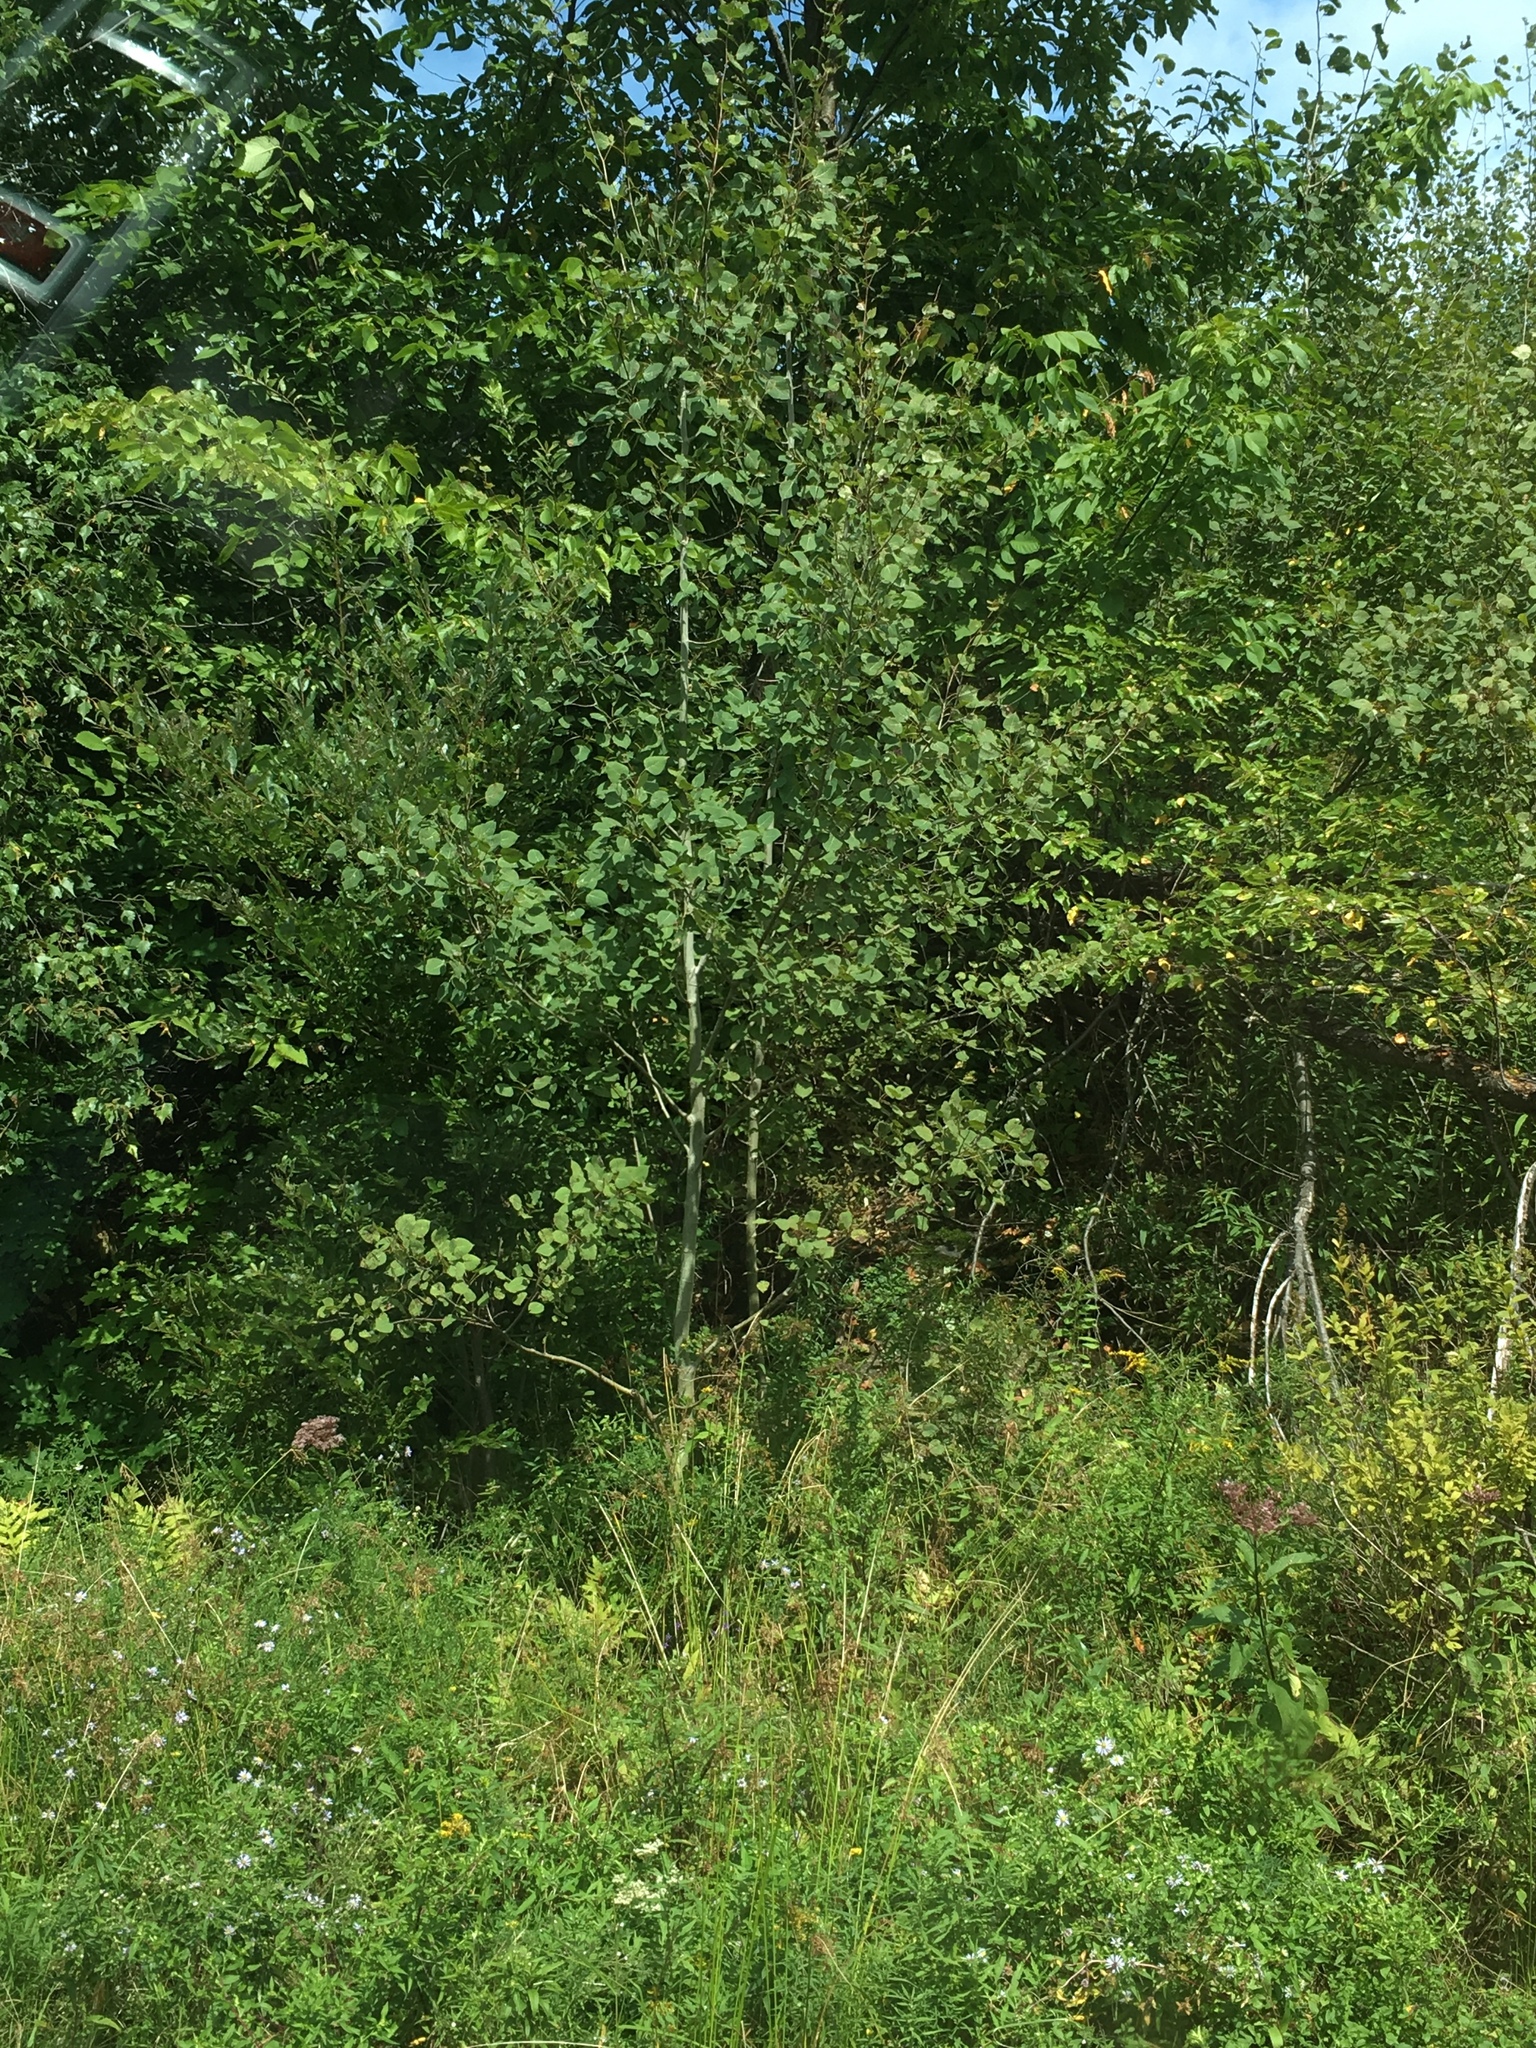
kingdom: Plantae
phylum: Tracheophyta
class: Magnoliopsida
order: Malpighiales
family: Salicaceae
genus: Populus
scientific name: Populus tremuloides
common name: Quaking aspen
